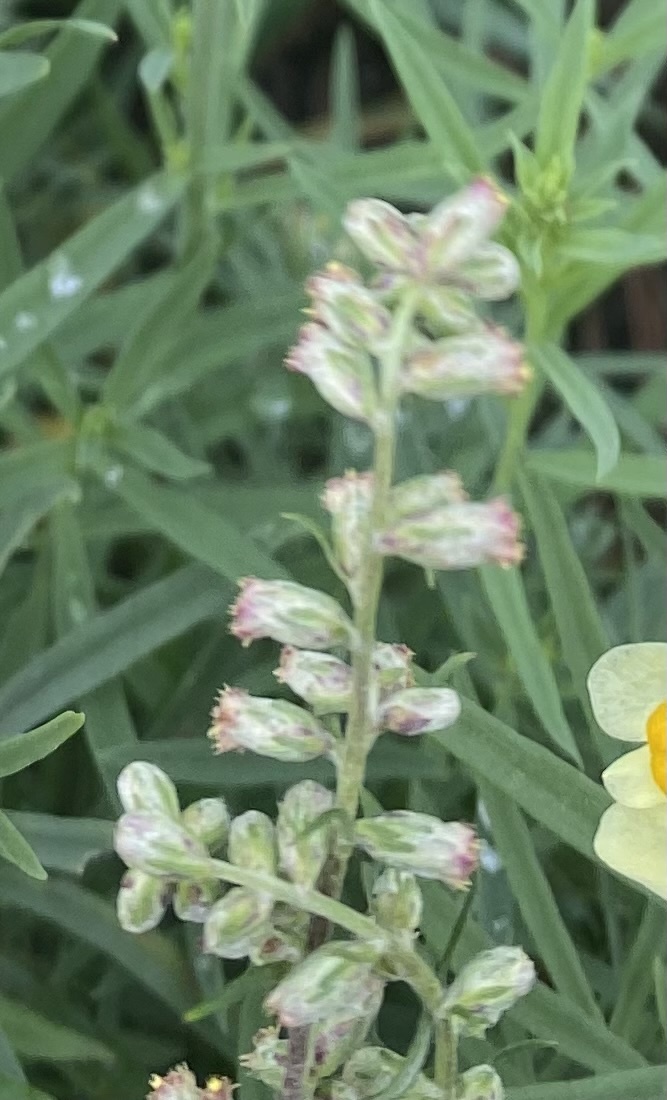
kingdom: Plantae
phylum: Tracheophyta
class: Magnoliopsida
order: Asterales
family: Asteraceae
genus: Artemisia
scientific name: Artemisia vulgaris
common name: Mugwort
